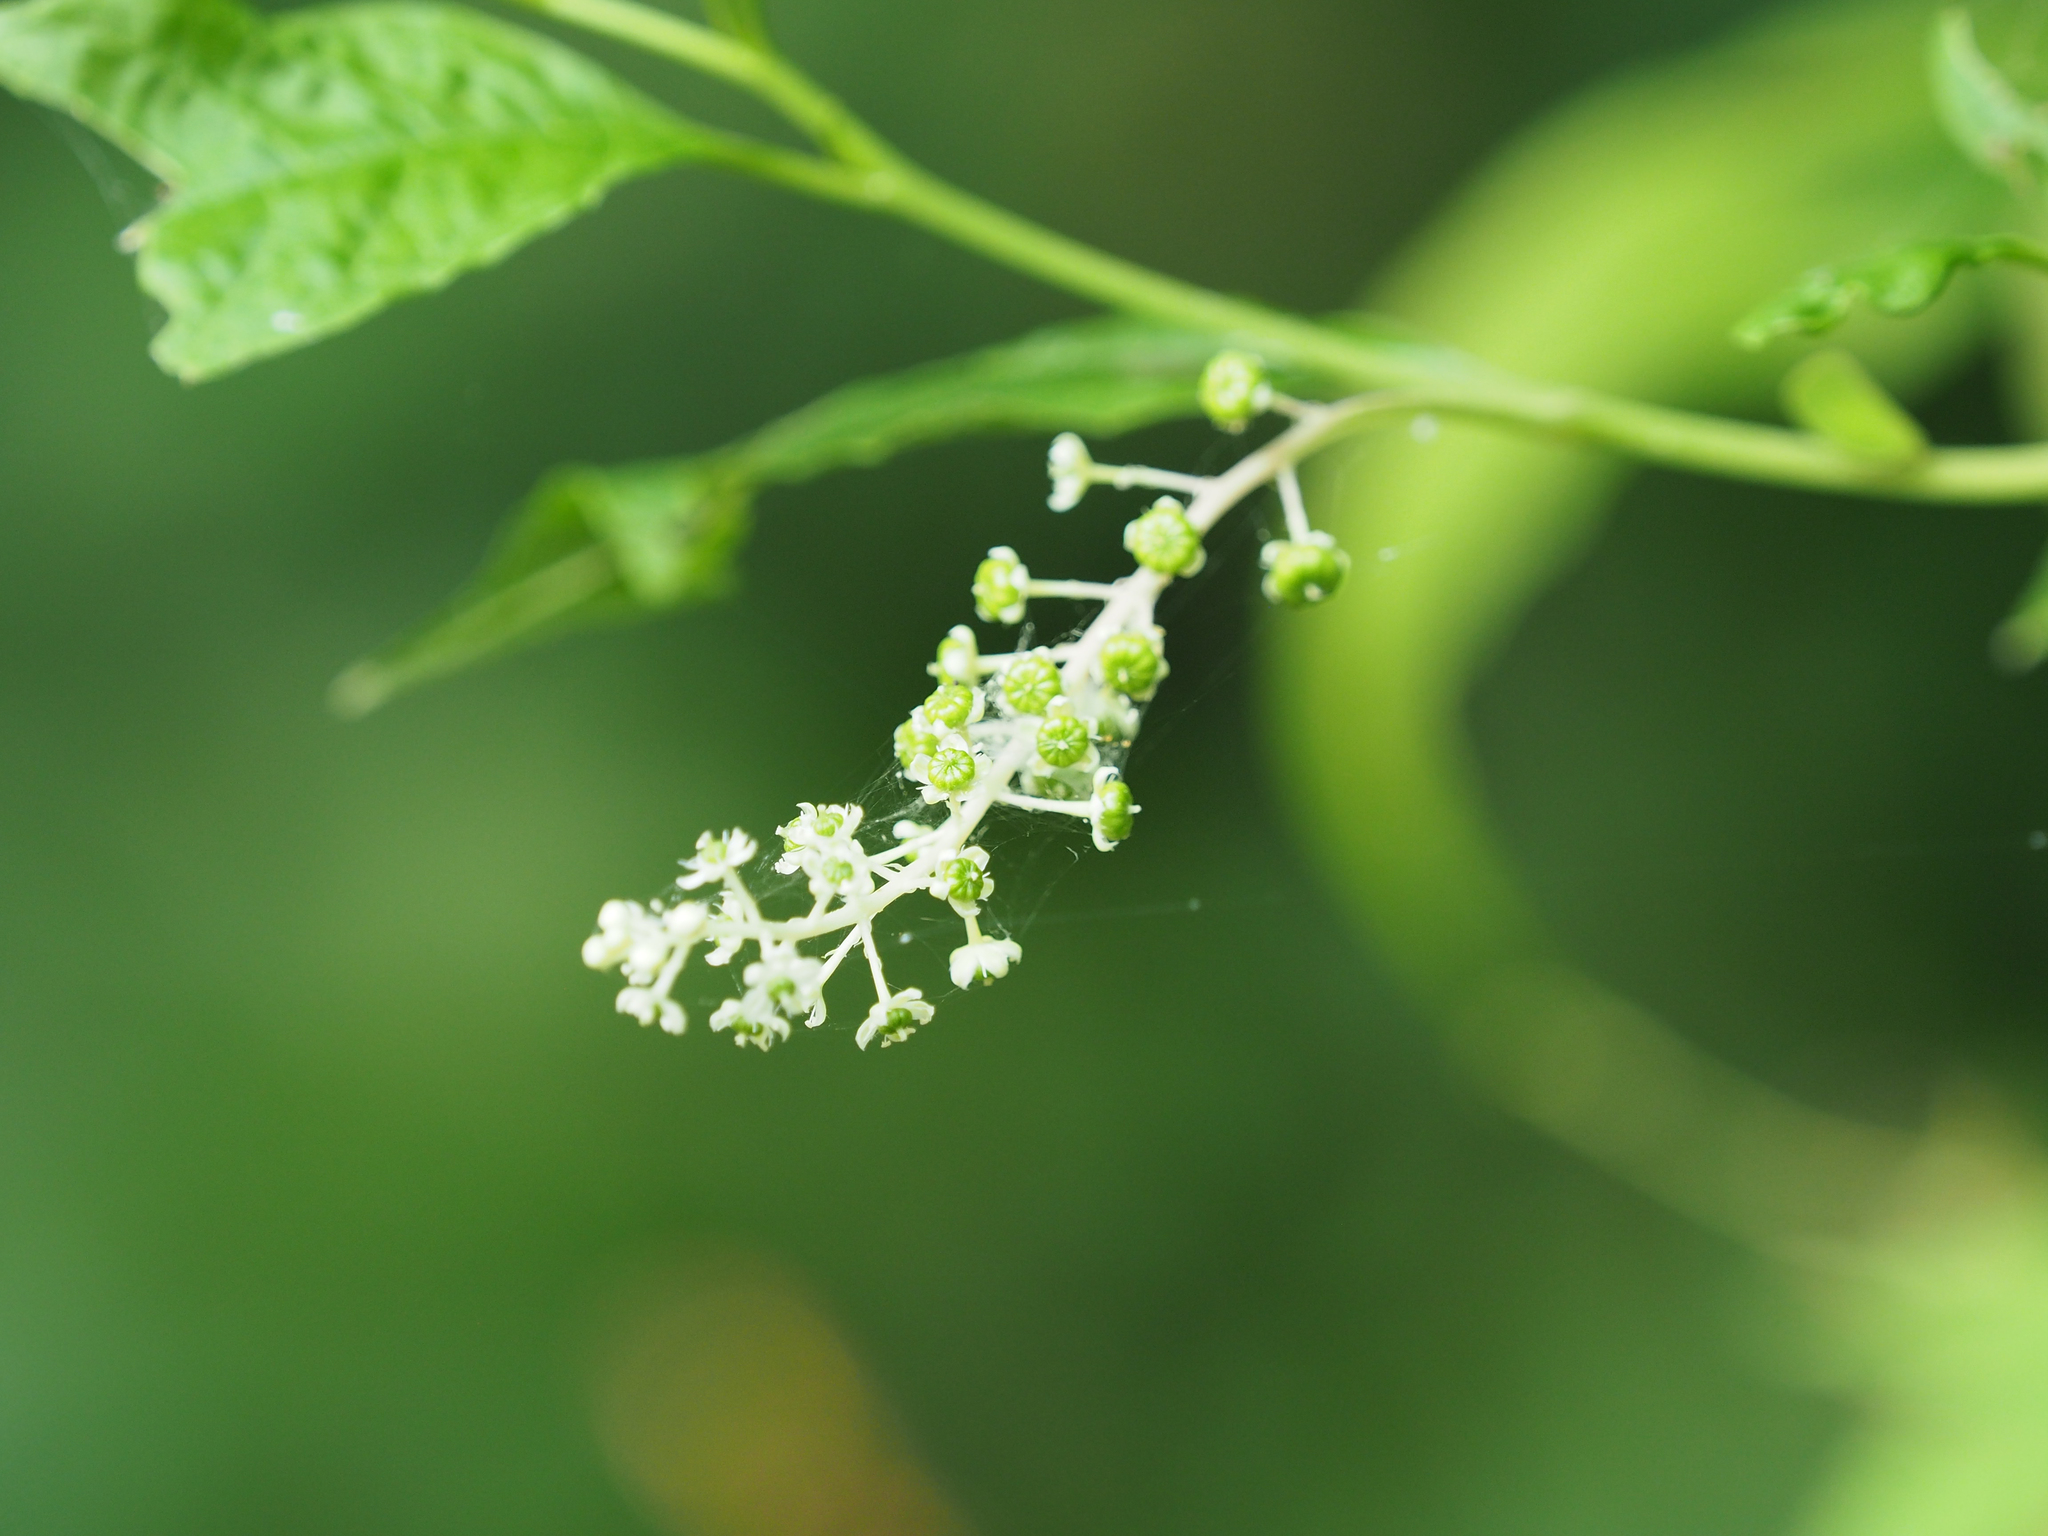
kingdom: Plantae
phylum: Tracheophyta
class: Magnoliopsida
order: Caryophyllales
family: Phytolaccaceae
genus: Phytolacca
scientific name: Phytolacca americana
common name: American pokeweed
